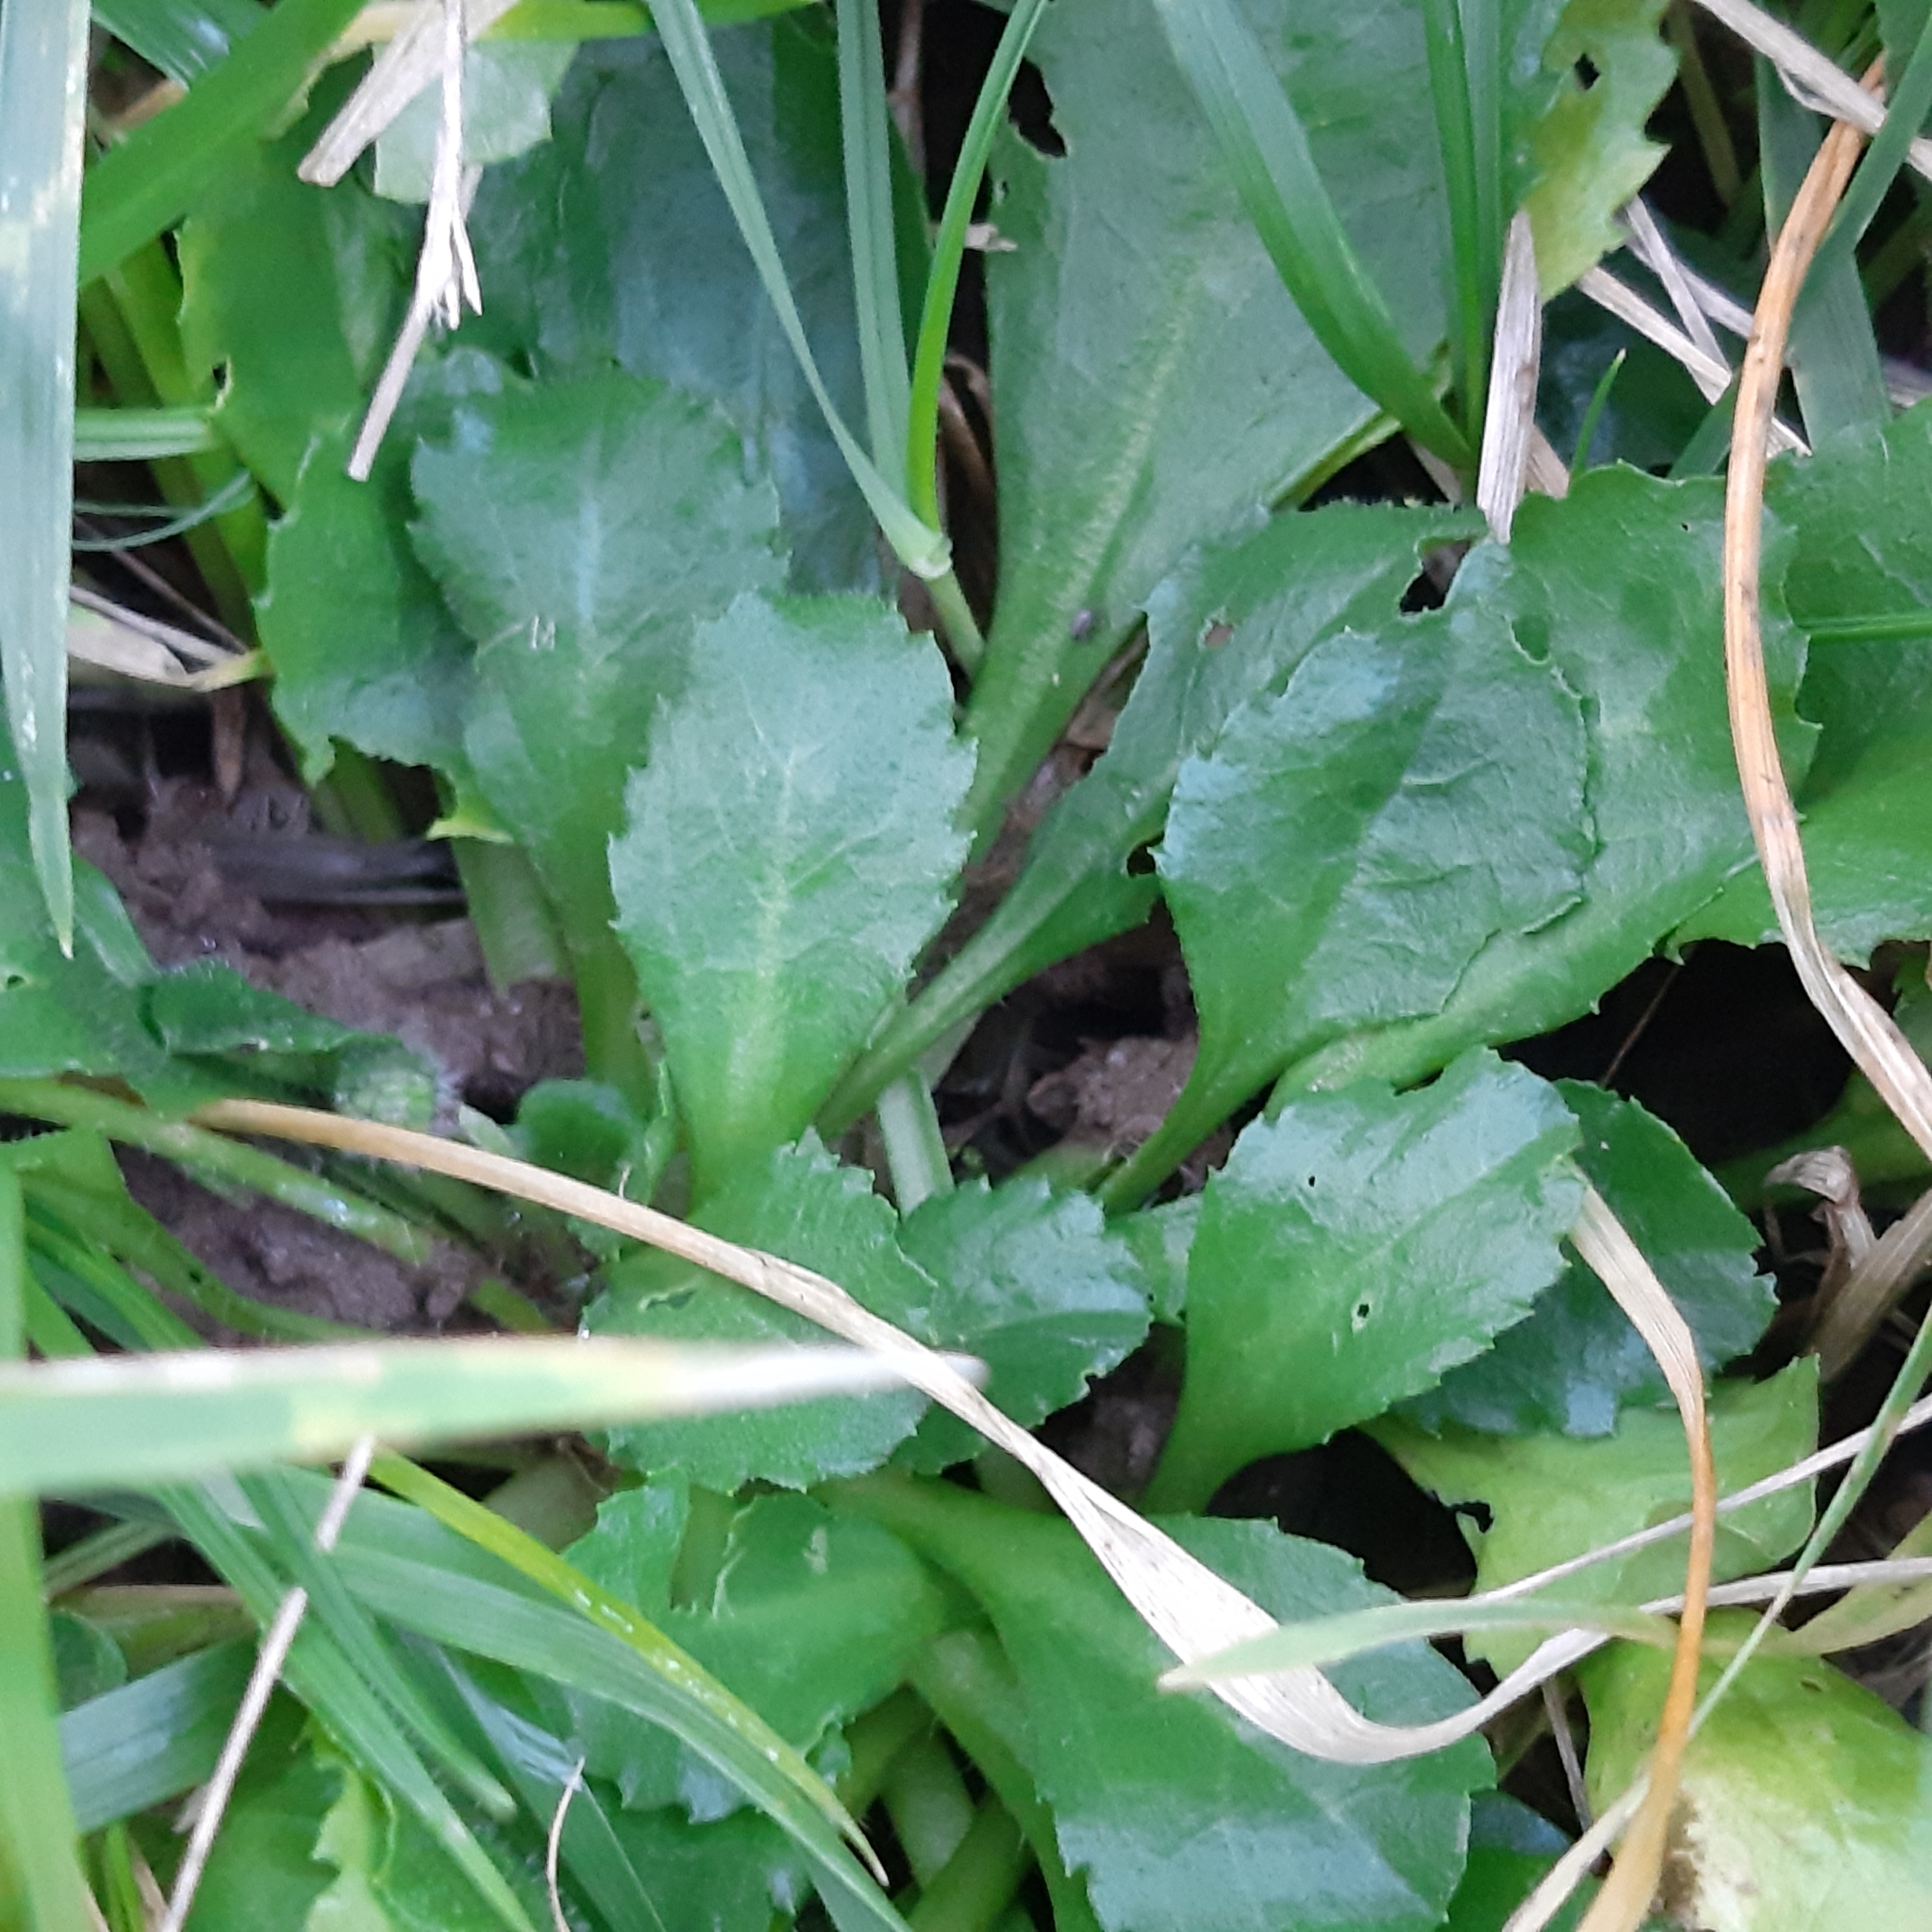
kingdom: Plantae
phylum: Tracheophyta
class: Magnoliopsida
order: Asterales
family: Asteraceae
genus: Bellis
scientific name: Bellis perennis
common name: Lawndaisy
